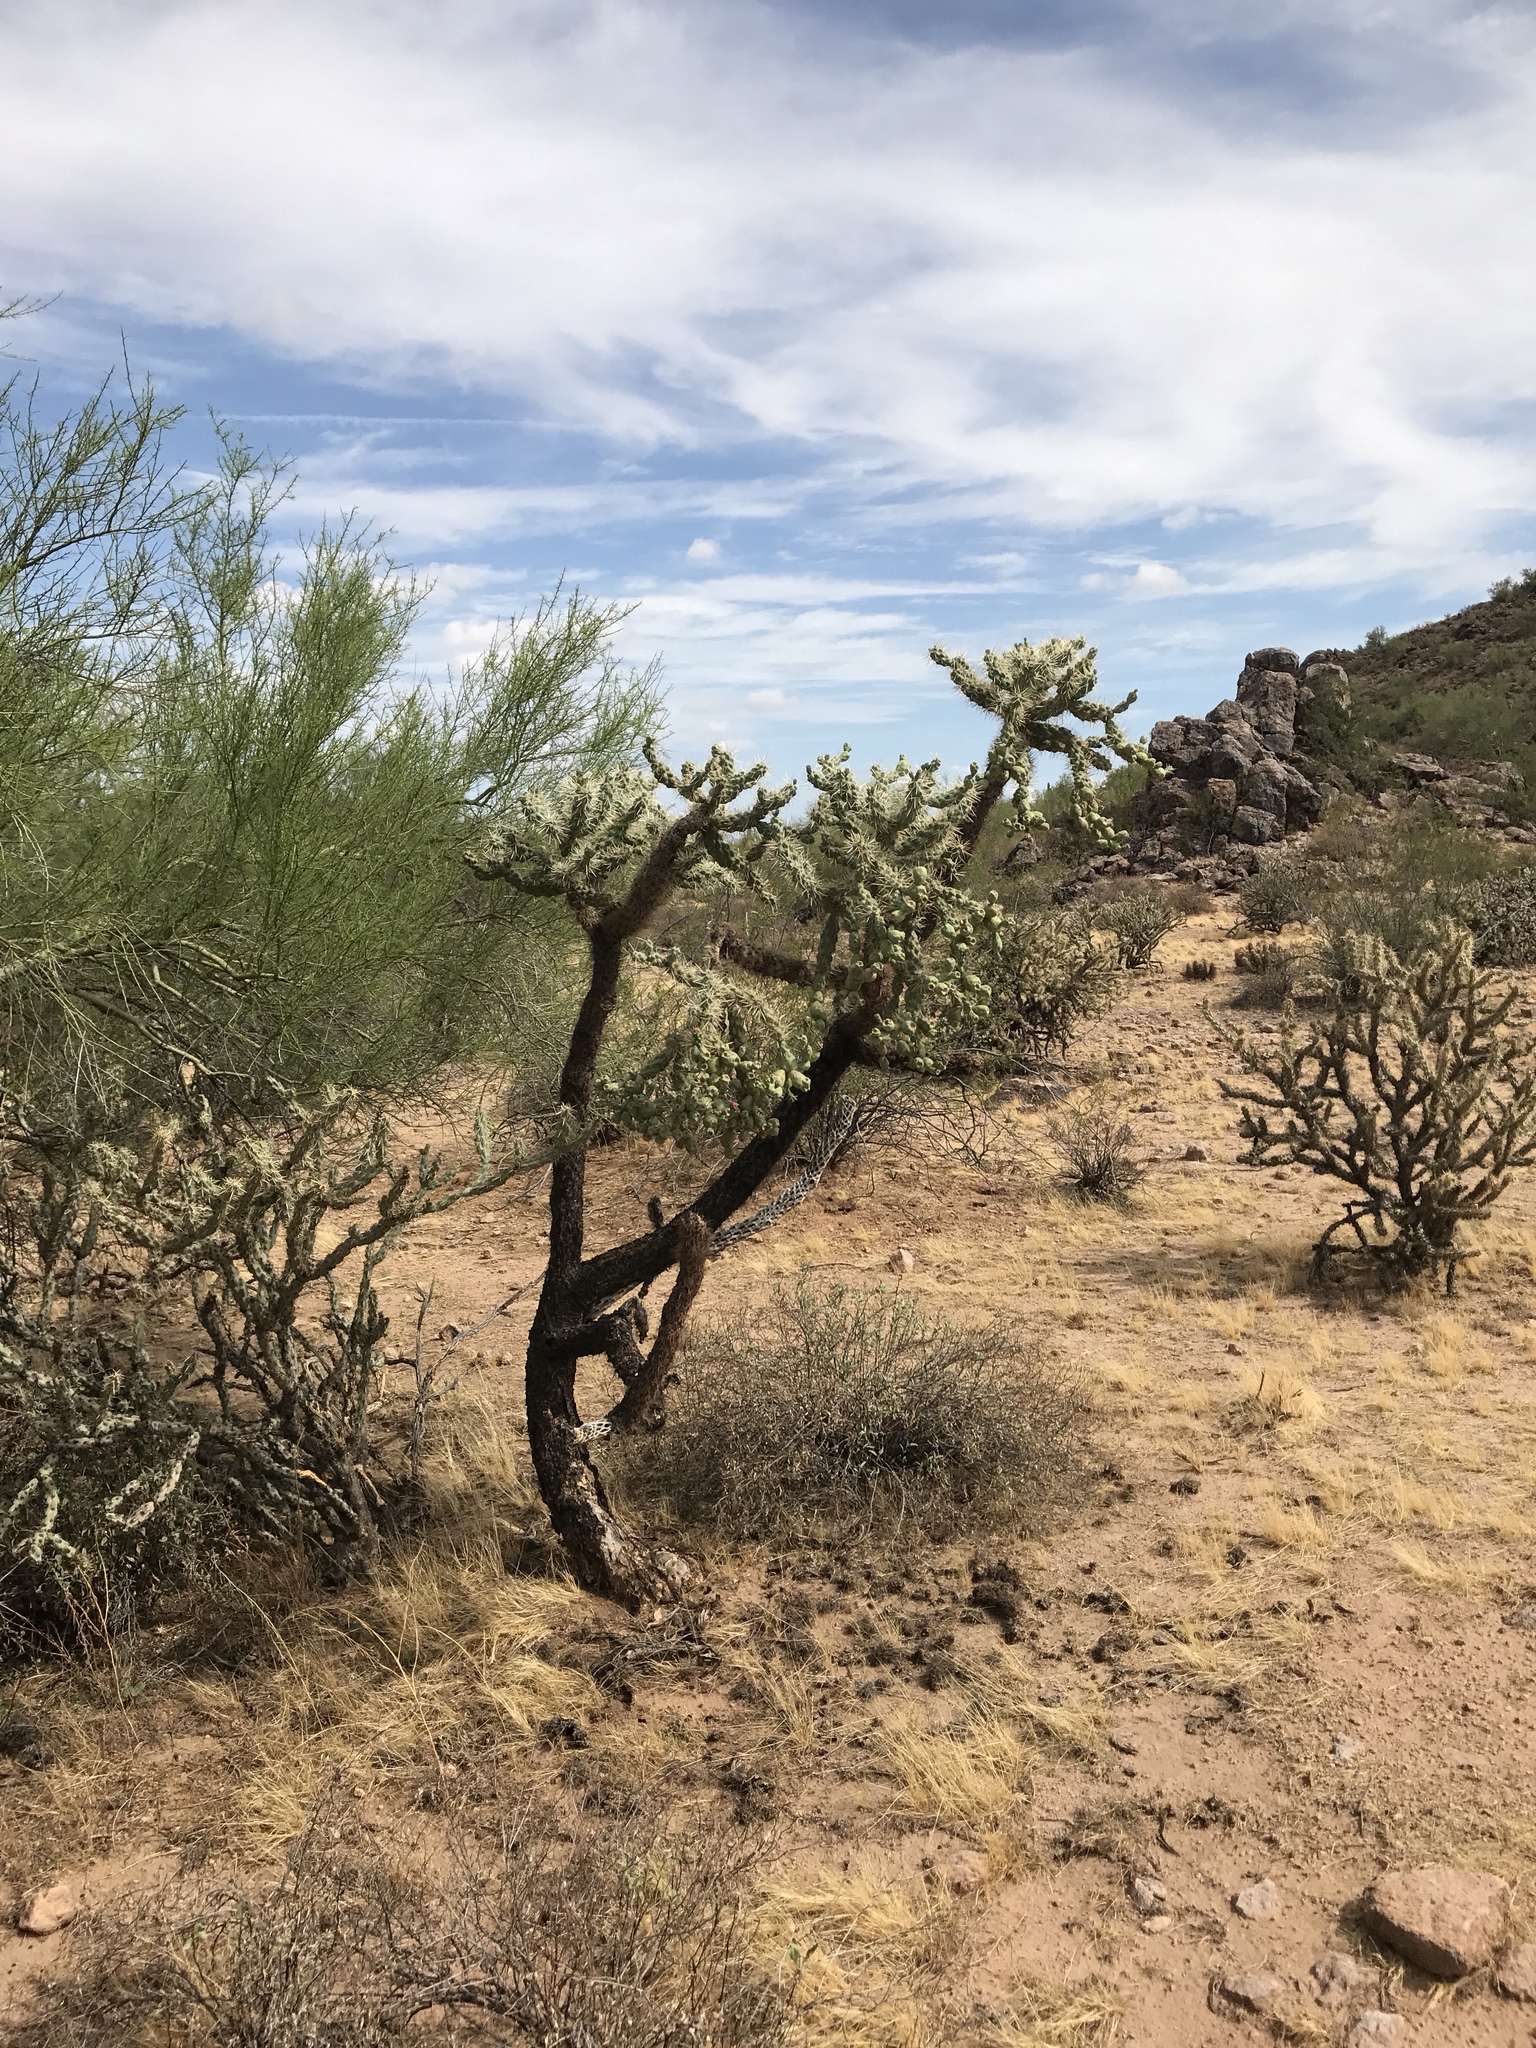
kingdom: Plantae
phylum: Tracheophyta
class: Magnoliopsida
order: Caryophyllales
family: Cactaceae
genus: Cylindropuntia
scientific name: Cylindropuntia fulgida
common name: Jumping cholla
